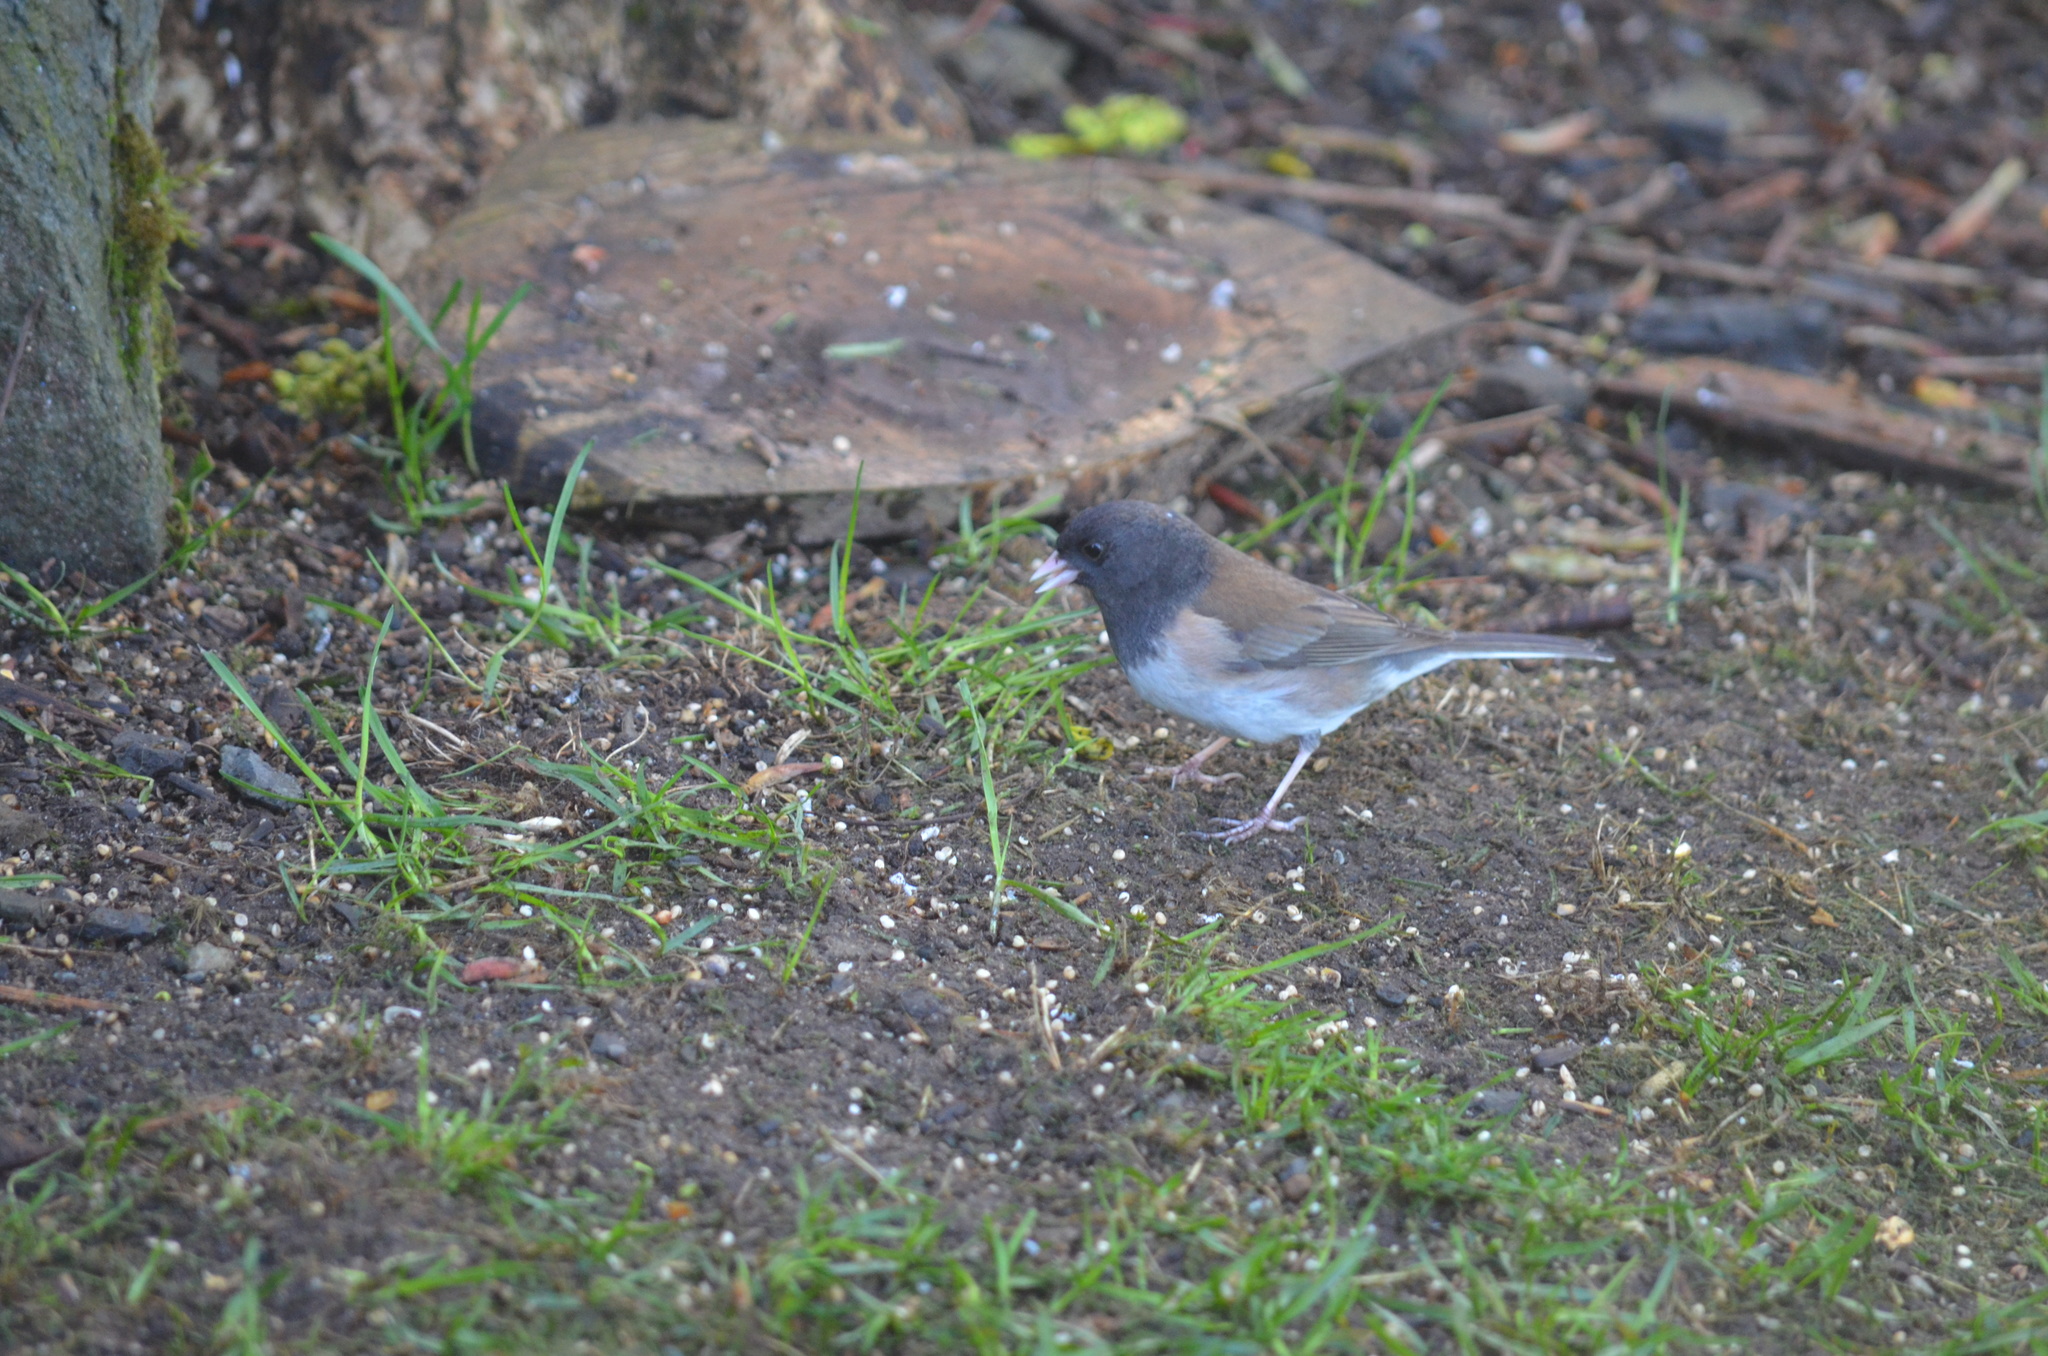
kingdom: Animalia
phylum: Chordata
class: Aves
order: Passeriformes
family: Passerellidae
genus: Junco
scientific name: Junco hyemalis
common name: Dark-eyed junco
